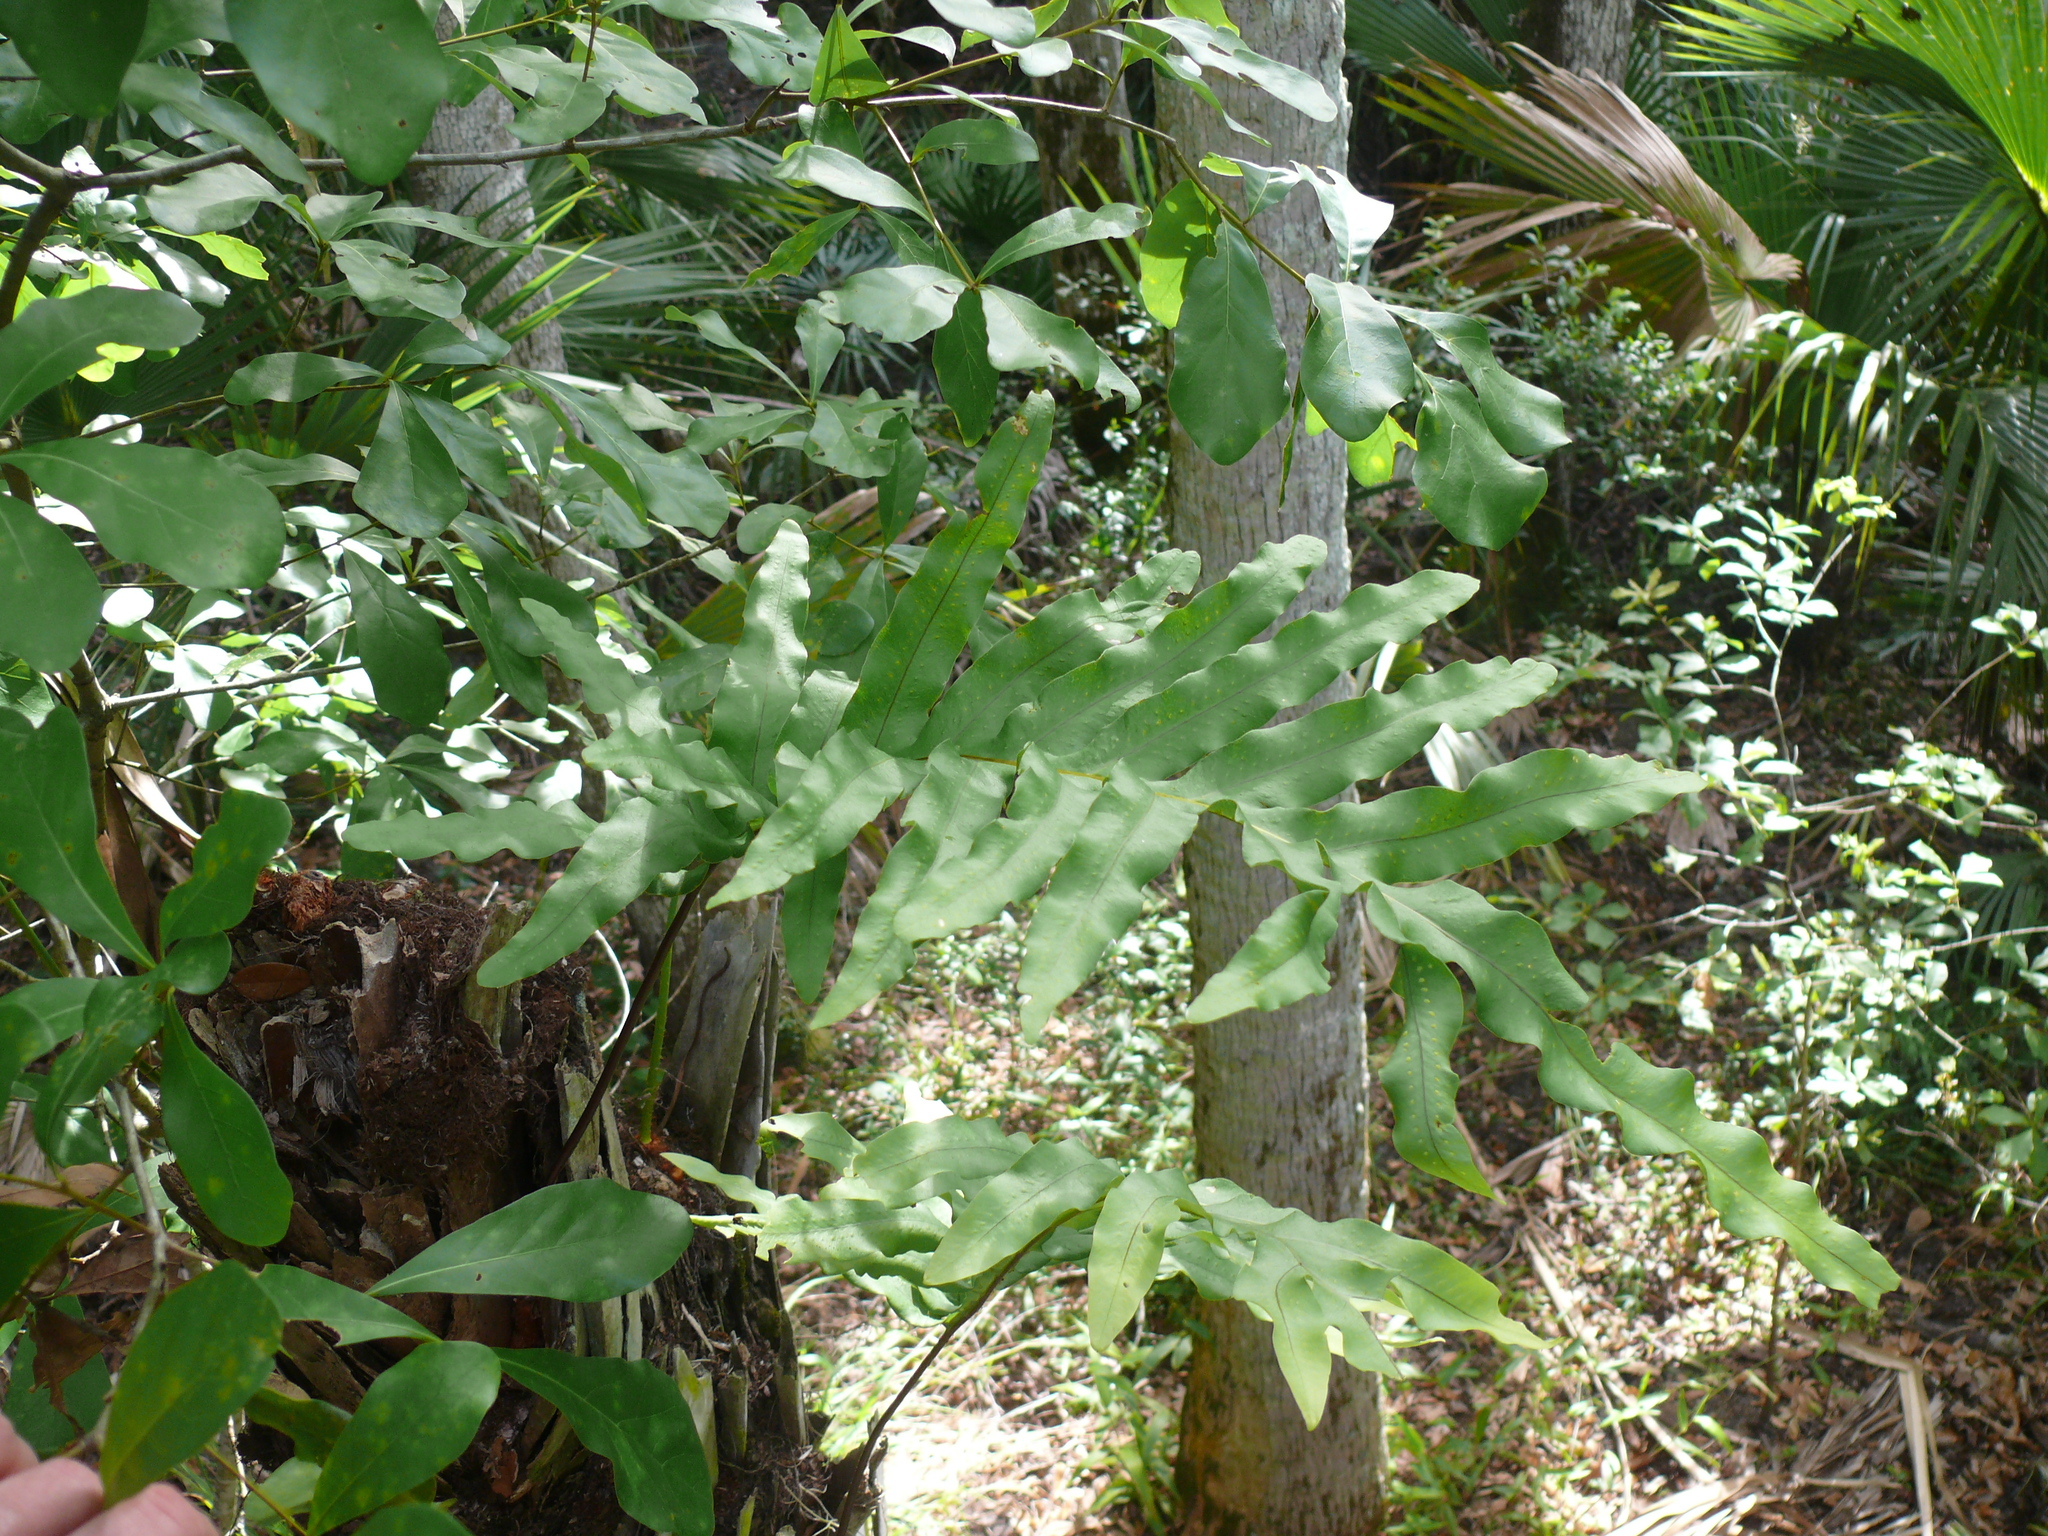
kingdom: Plantae
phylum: Tracheophyta
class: Polypodiopsida
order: Polypodiales
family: Polypodiaceae
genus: Phlebodium
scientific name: Phlebodium aureum
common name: Gold-foot fern
